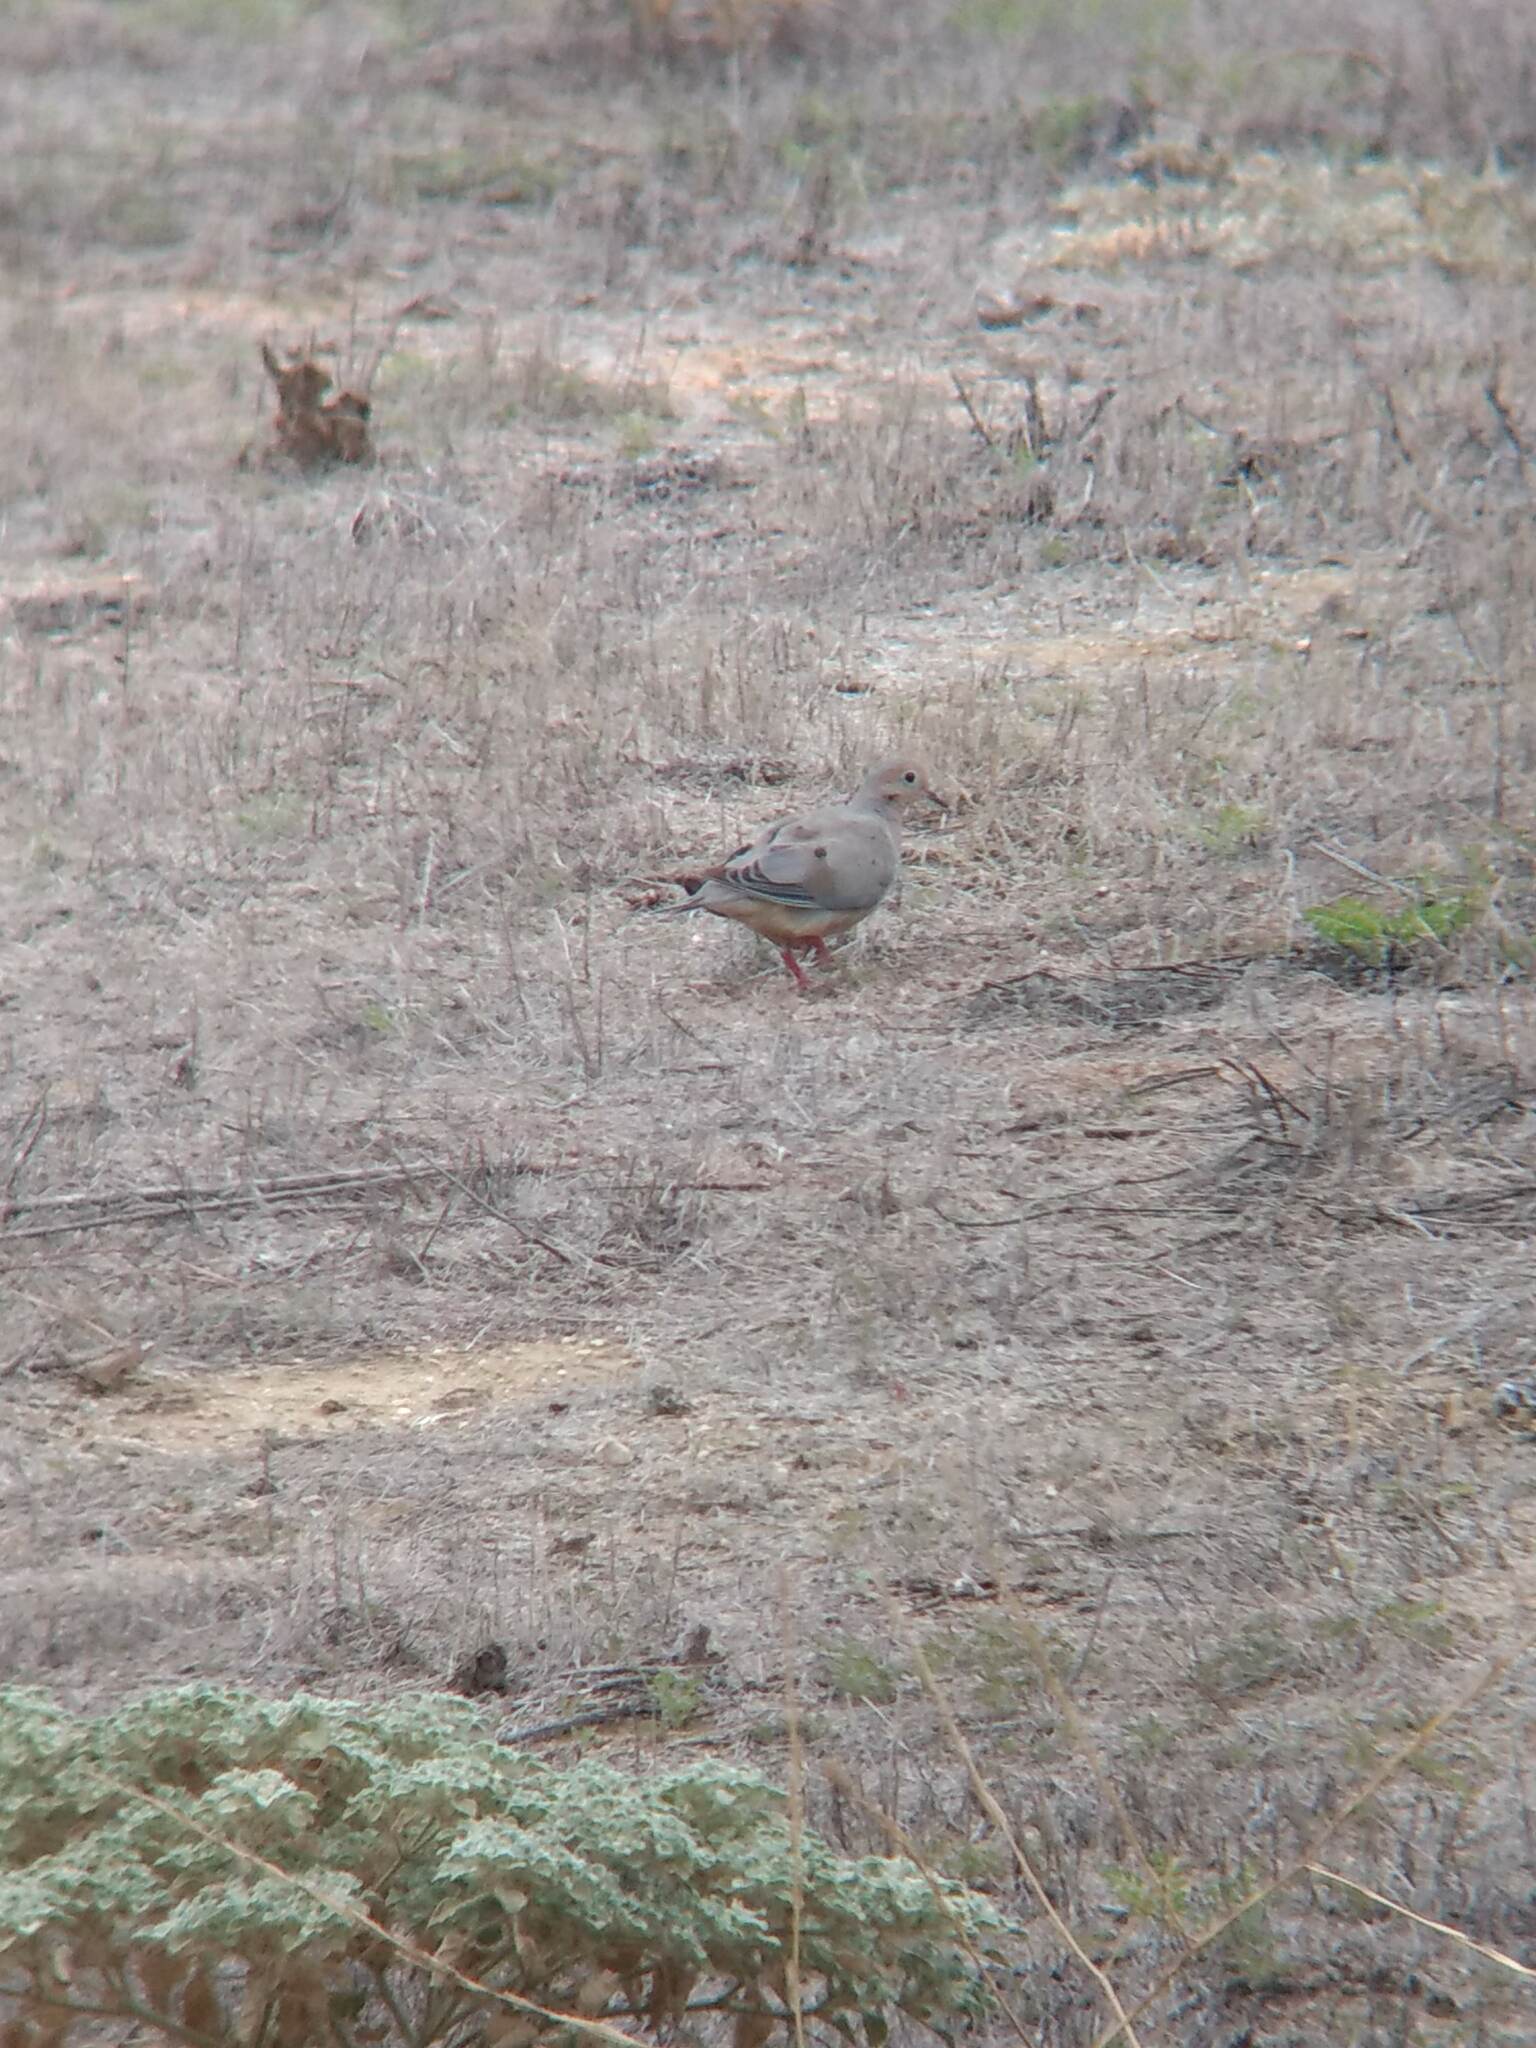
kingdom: Animalia
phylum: Chordata
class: Aves
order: Columbiformes
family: Columbidae
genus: Zenaida
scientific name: Zenaida macroura
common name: Mourning dove
